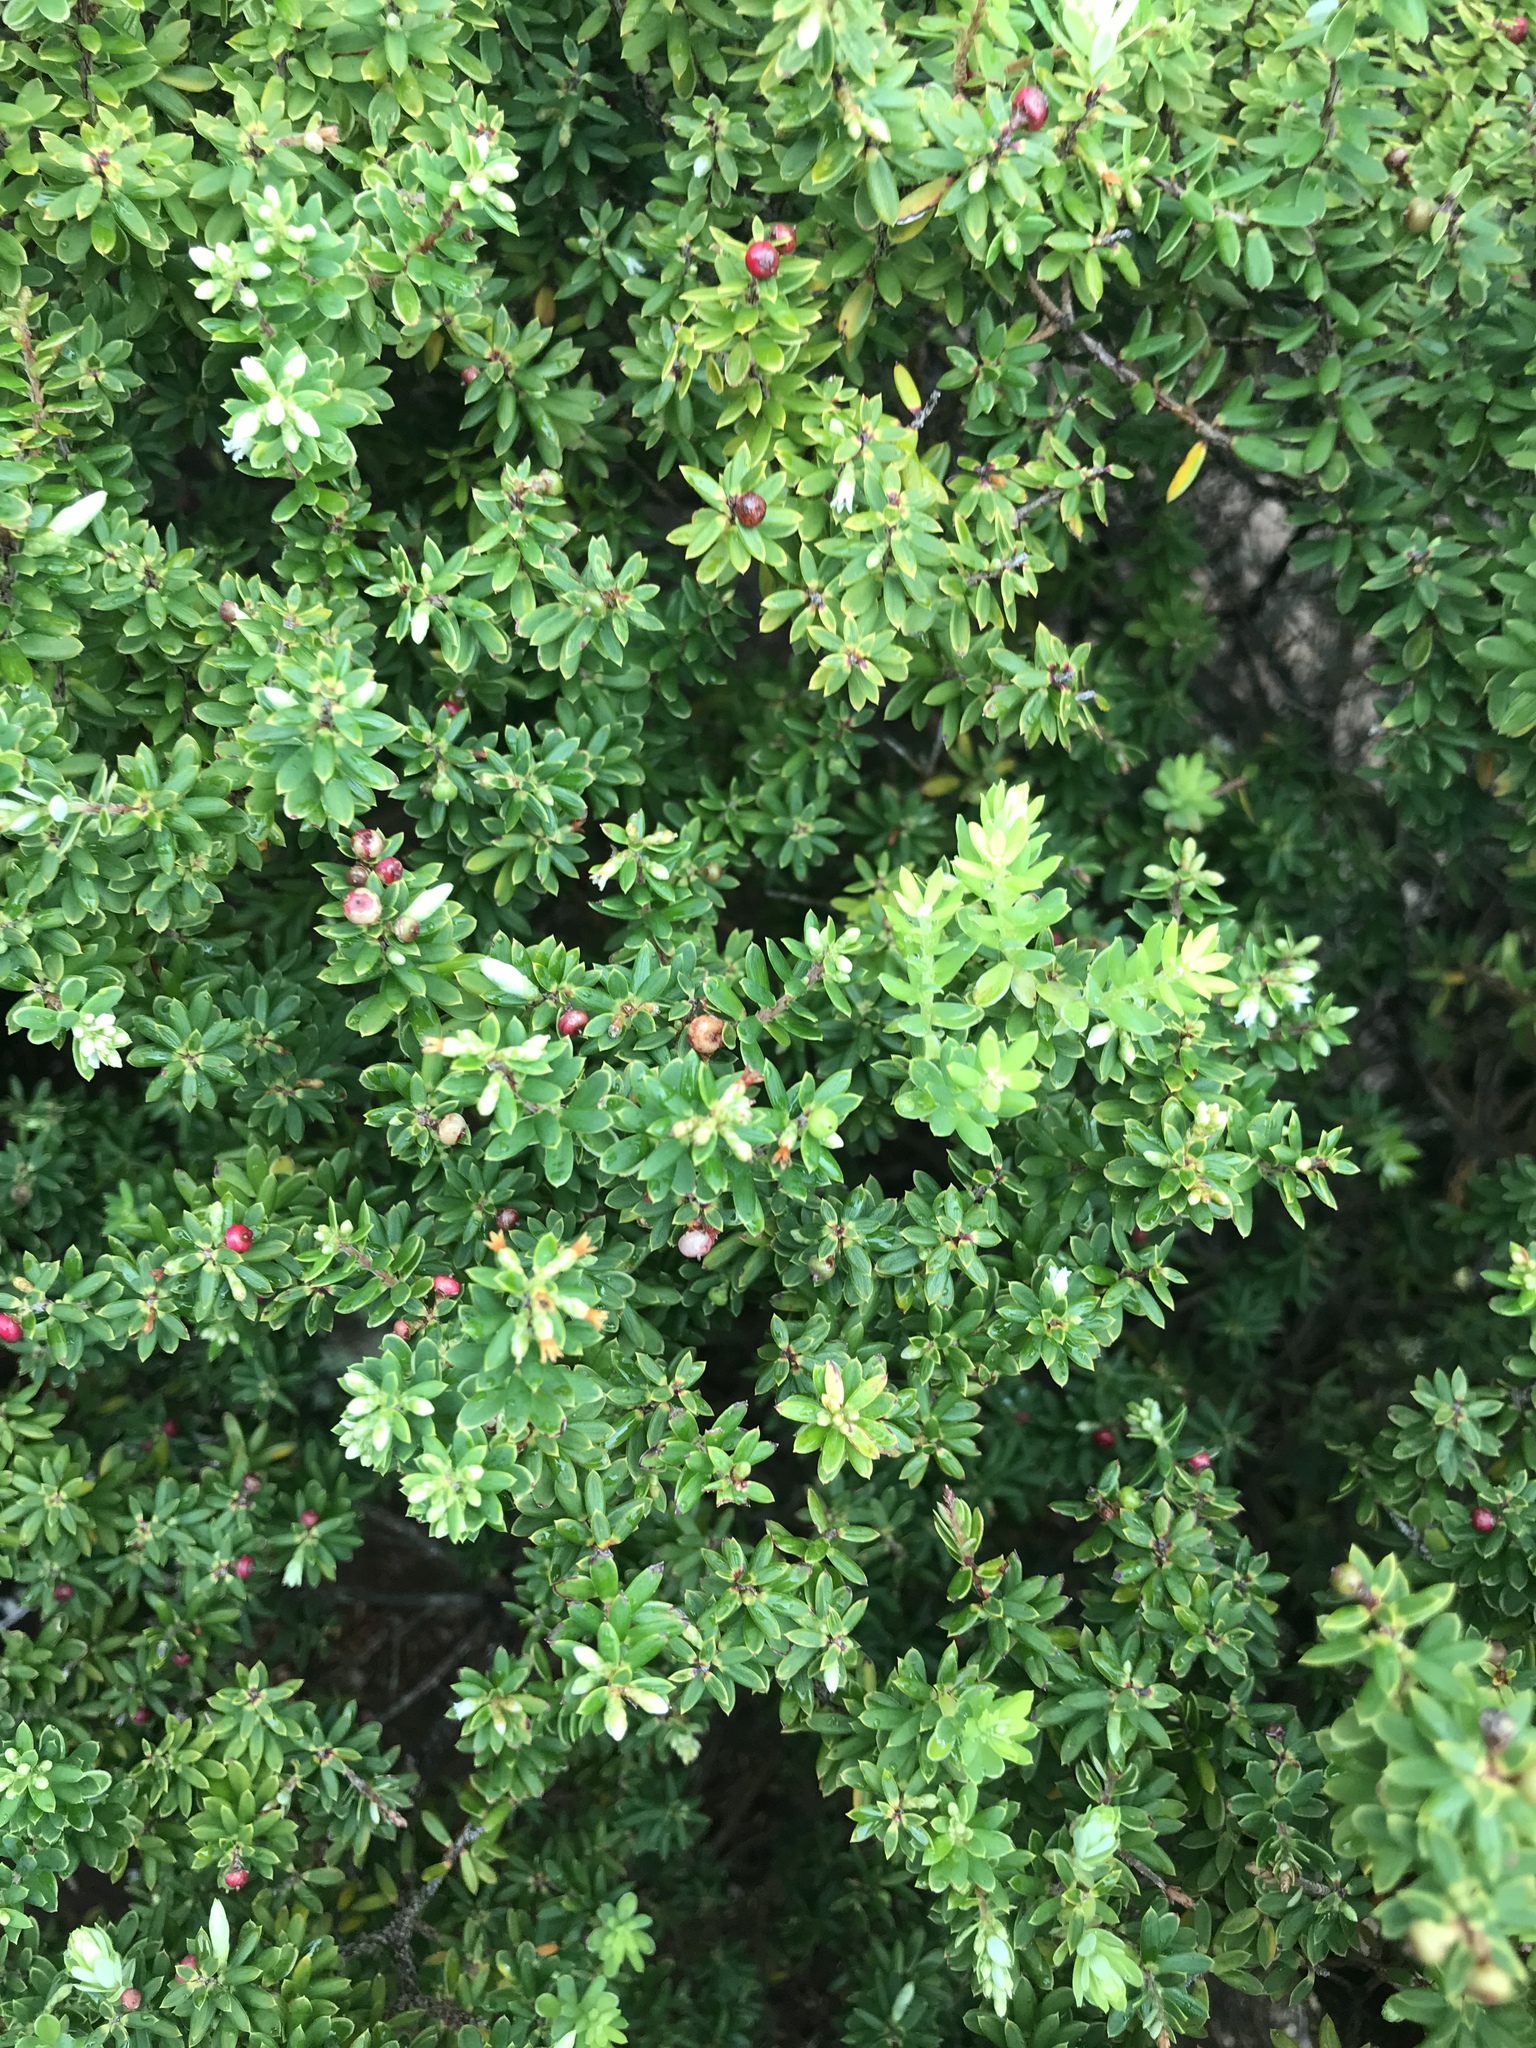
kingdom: Plantae
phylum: Tracheophyta
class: Magnoliopsida
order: Ericales
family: Ericaceae
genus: Leptecophylla
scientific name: Leptecophylla tameiameiae
